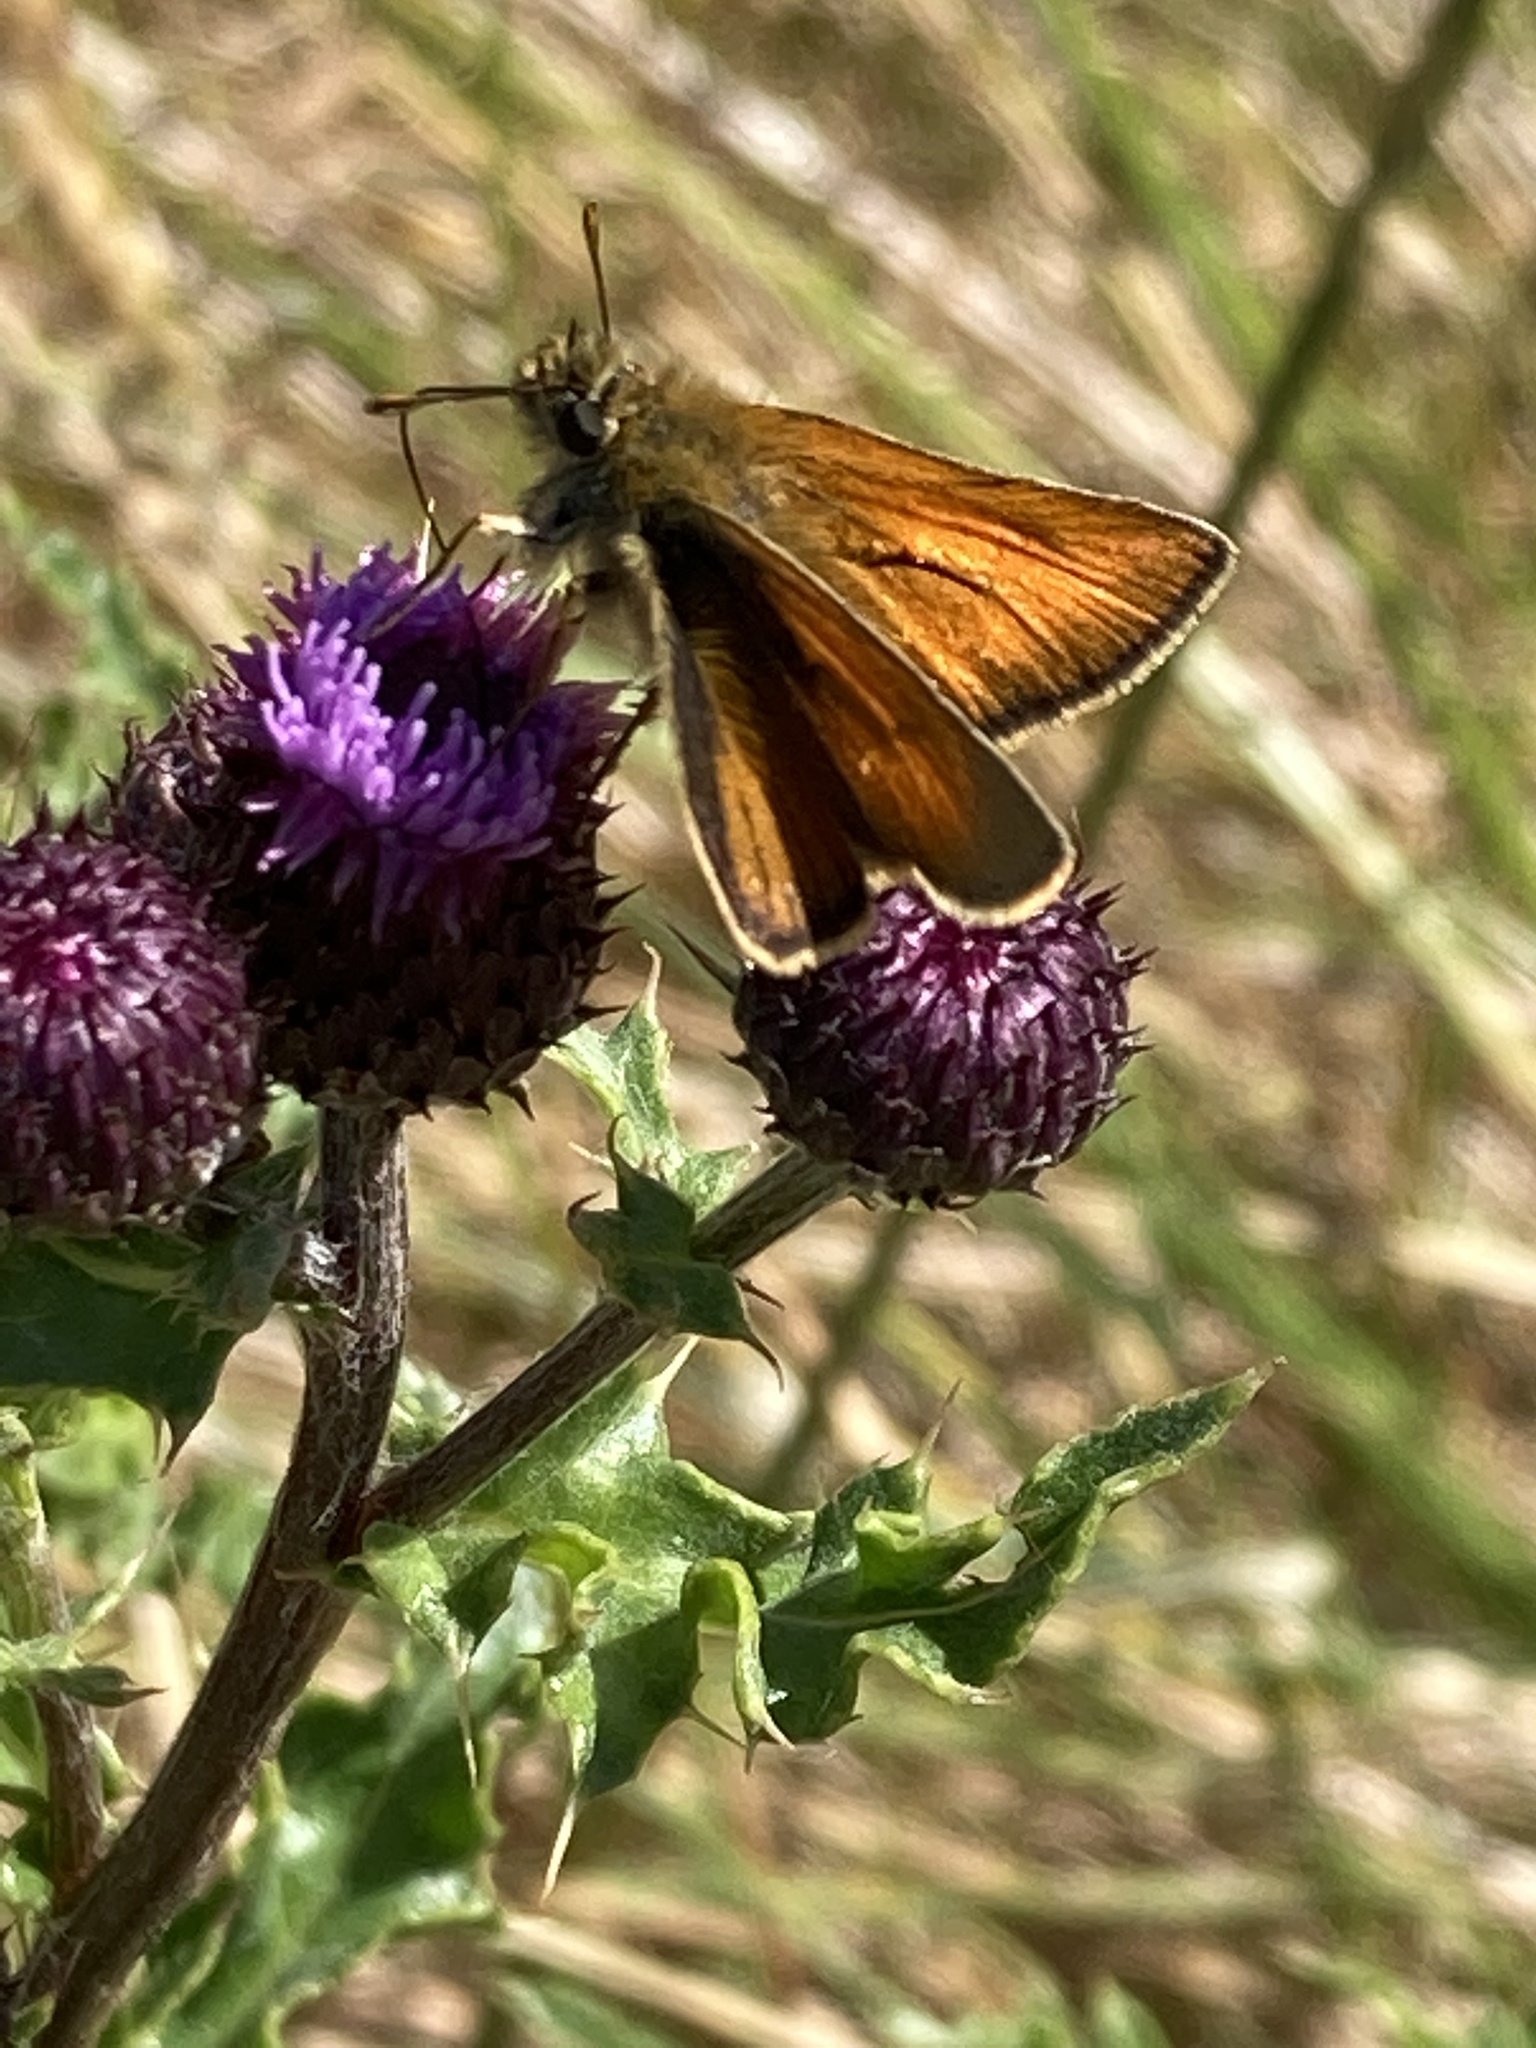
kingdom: Animalia
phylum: Arthropoda
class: Insecta
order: Lepidoptera
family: Hesperiidae
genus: Thymelicus
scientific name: Thymelicus sylvestris
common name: Small skipper
